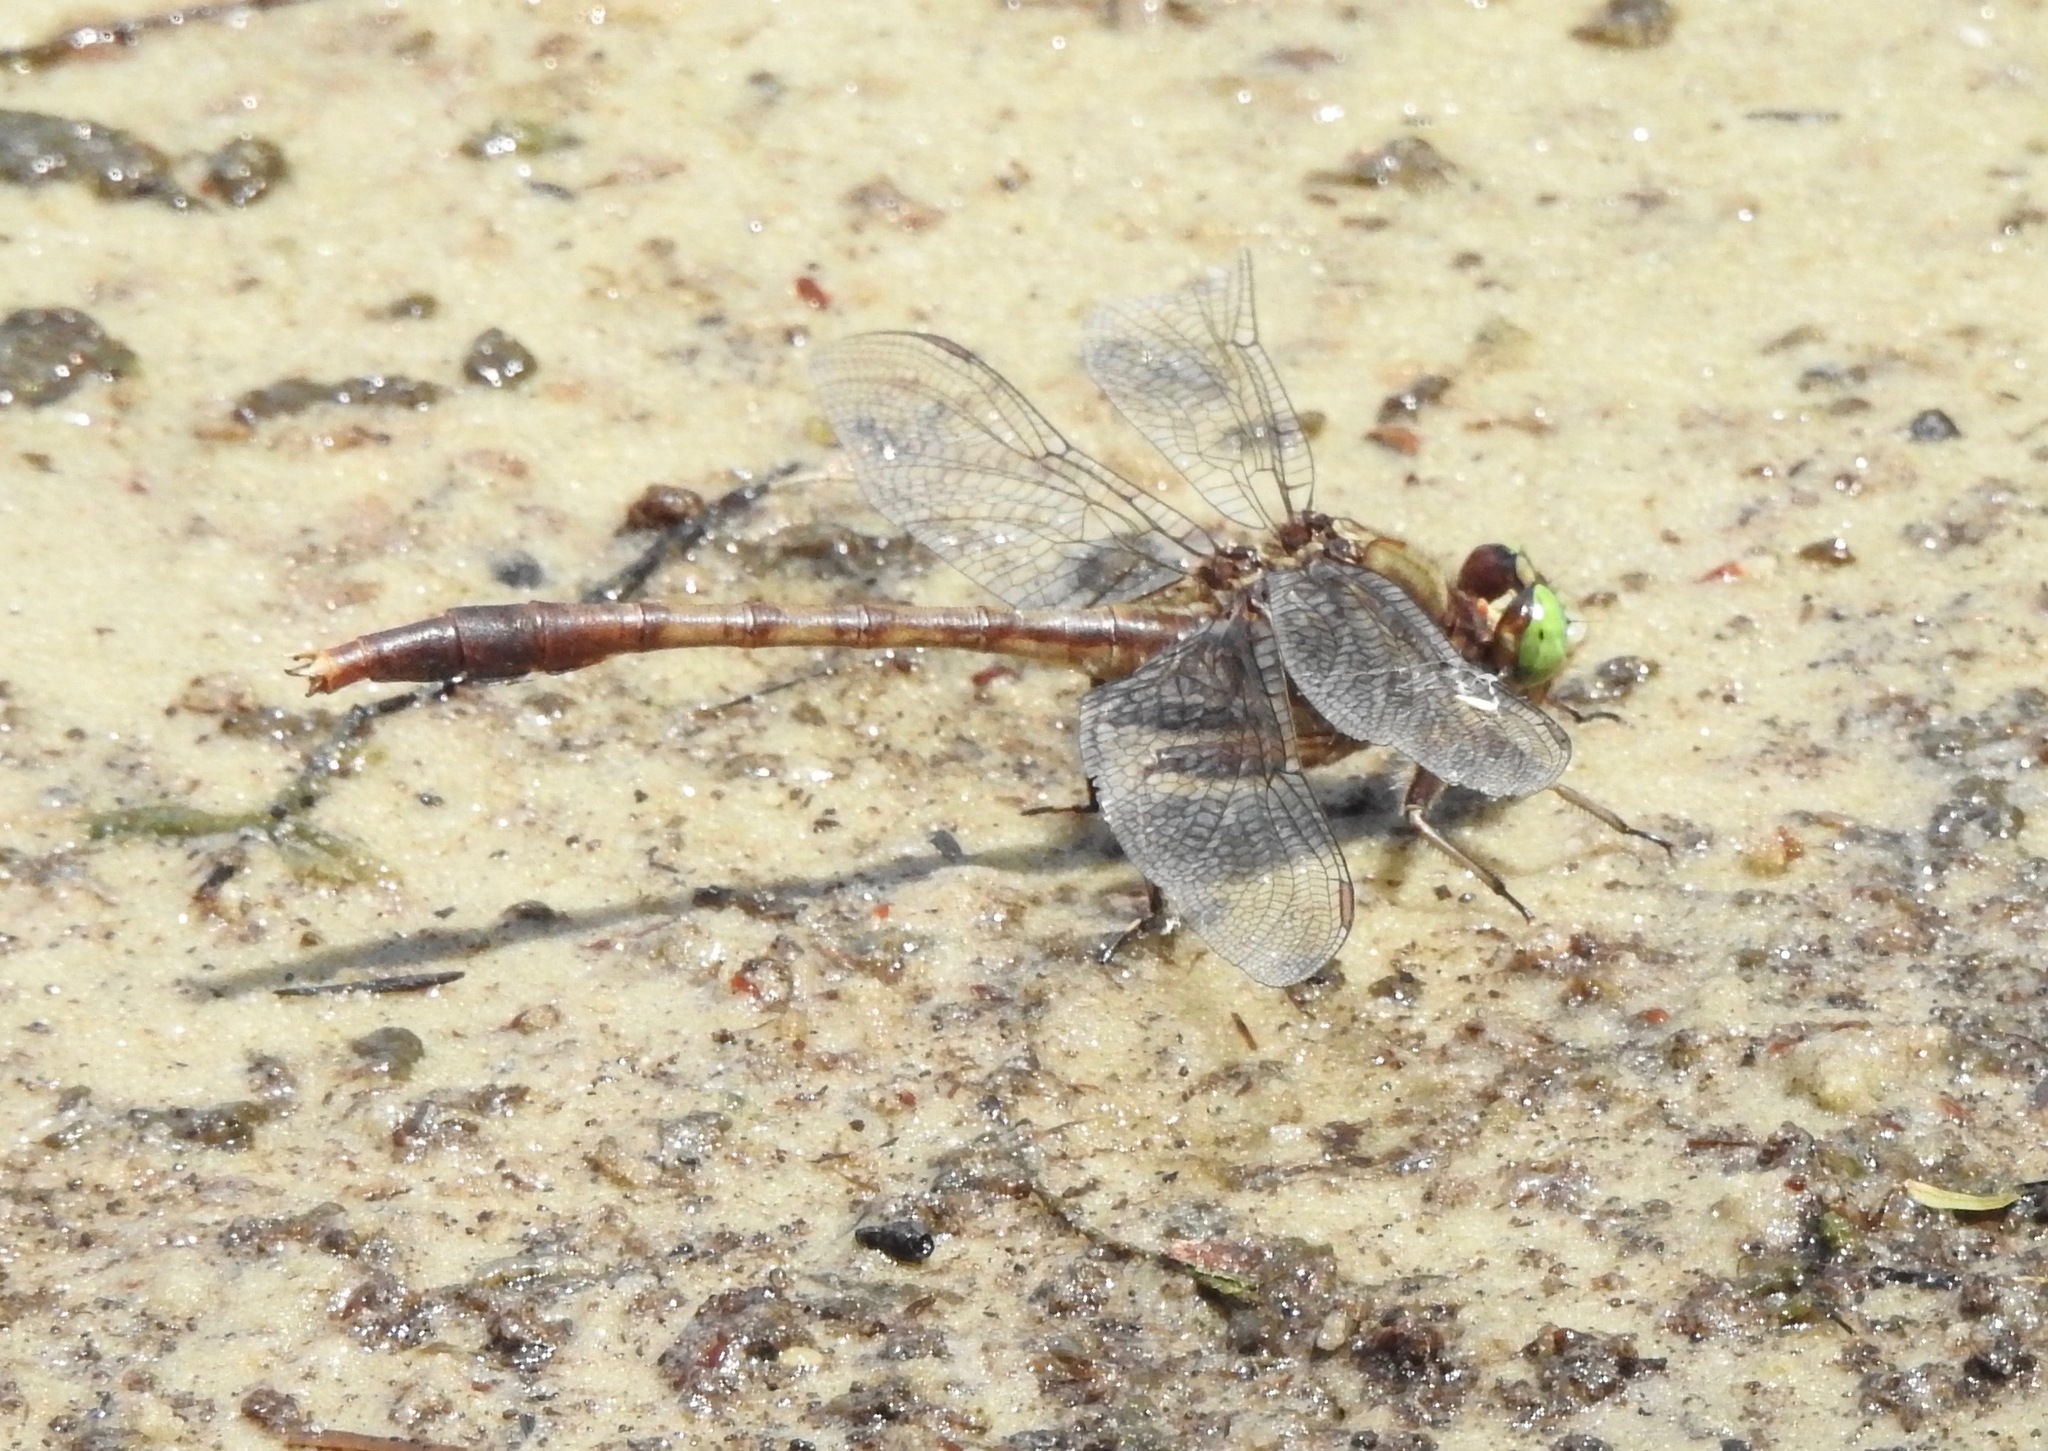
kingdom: Animalia
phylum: Arthropoda
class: Insecta
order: Odonata
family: Gomphidae
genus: Arigomphus
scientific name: Arigomphus pallidus
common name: Gray-green clubtail
